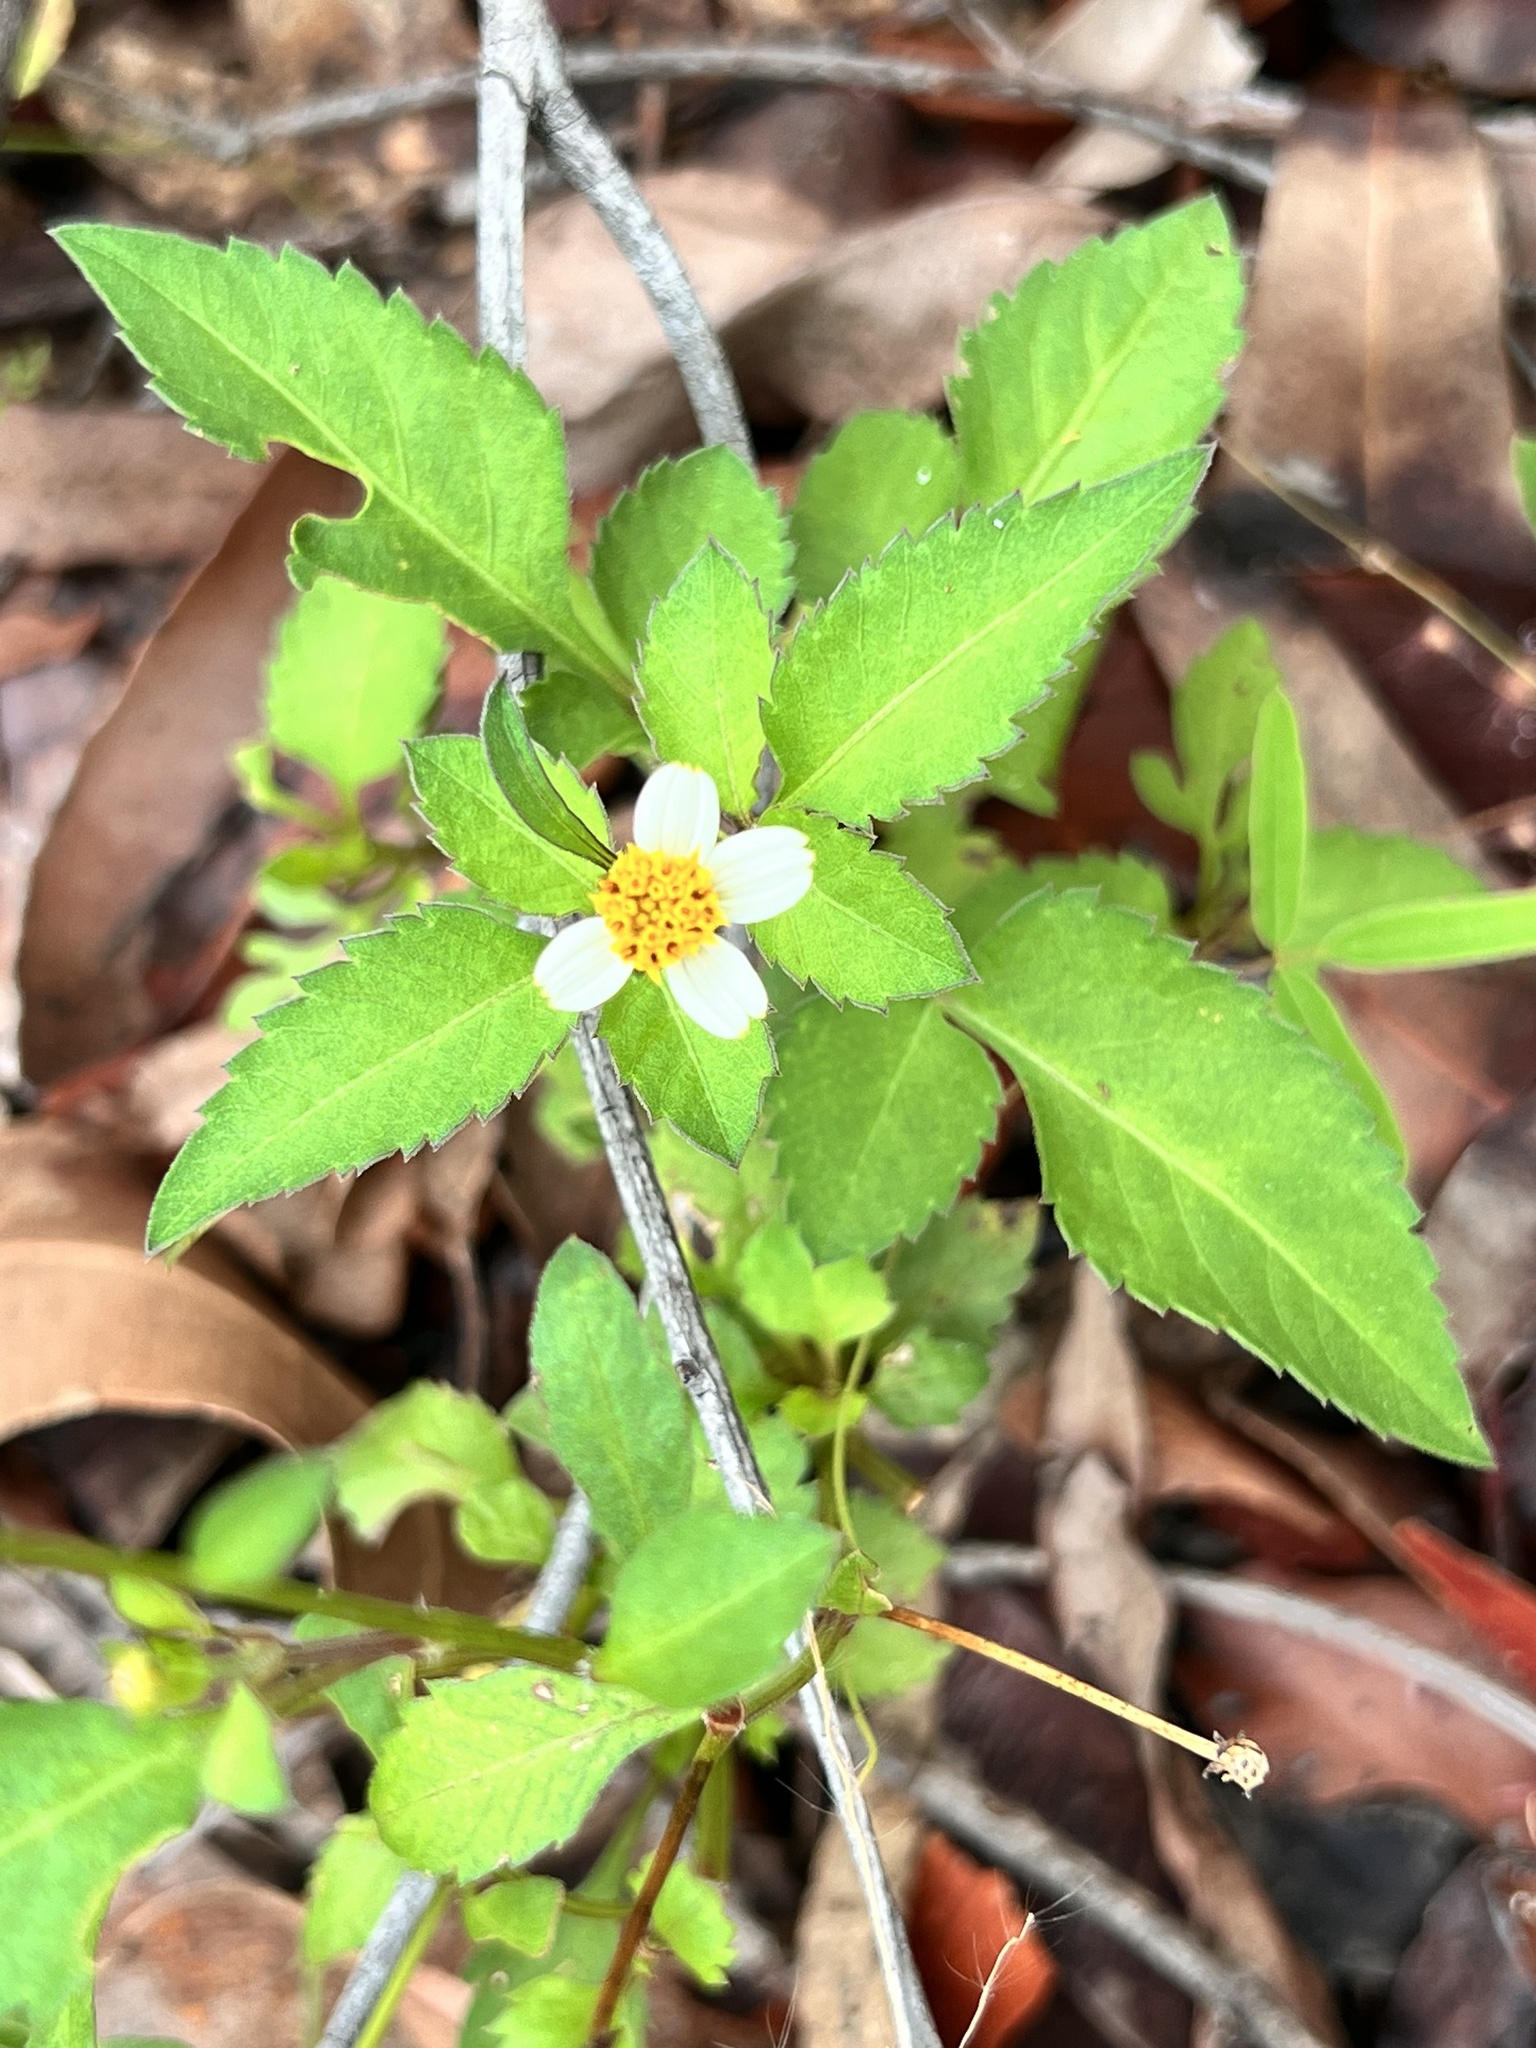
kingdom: Plantae
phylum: Tracheophyta
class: Magnoliopsida
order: Asterales
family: Asteraceae
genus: Bidens
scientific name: Bidens pilosa
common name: Black-jack
